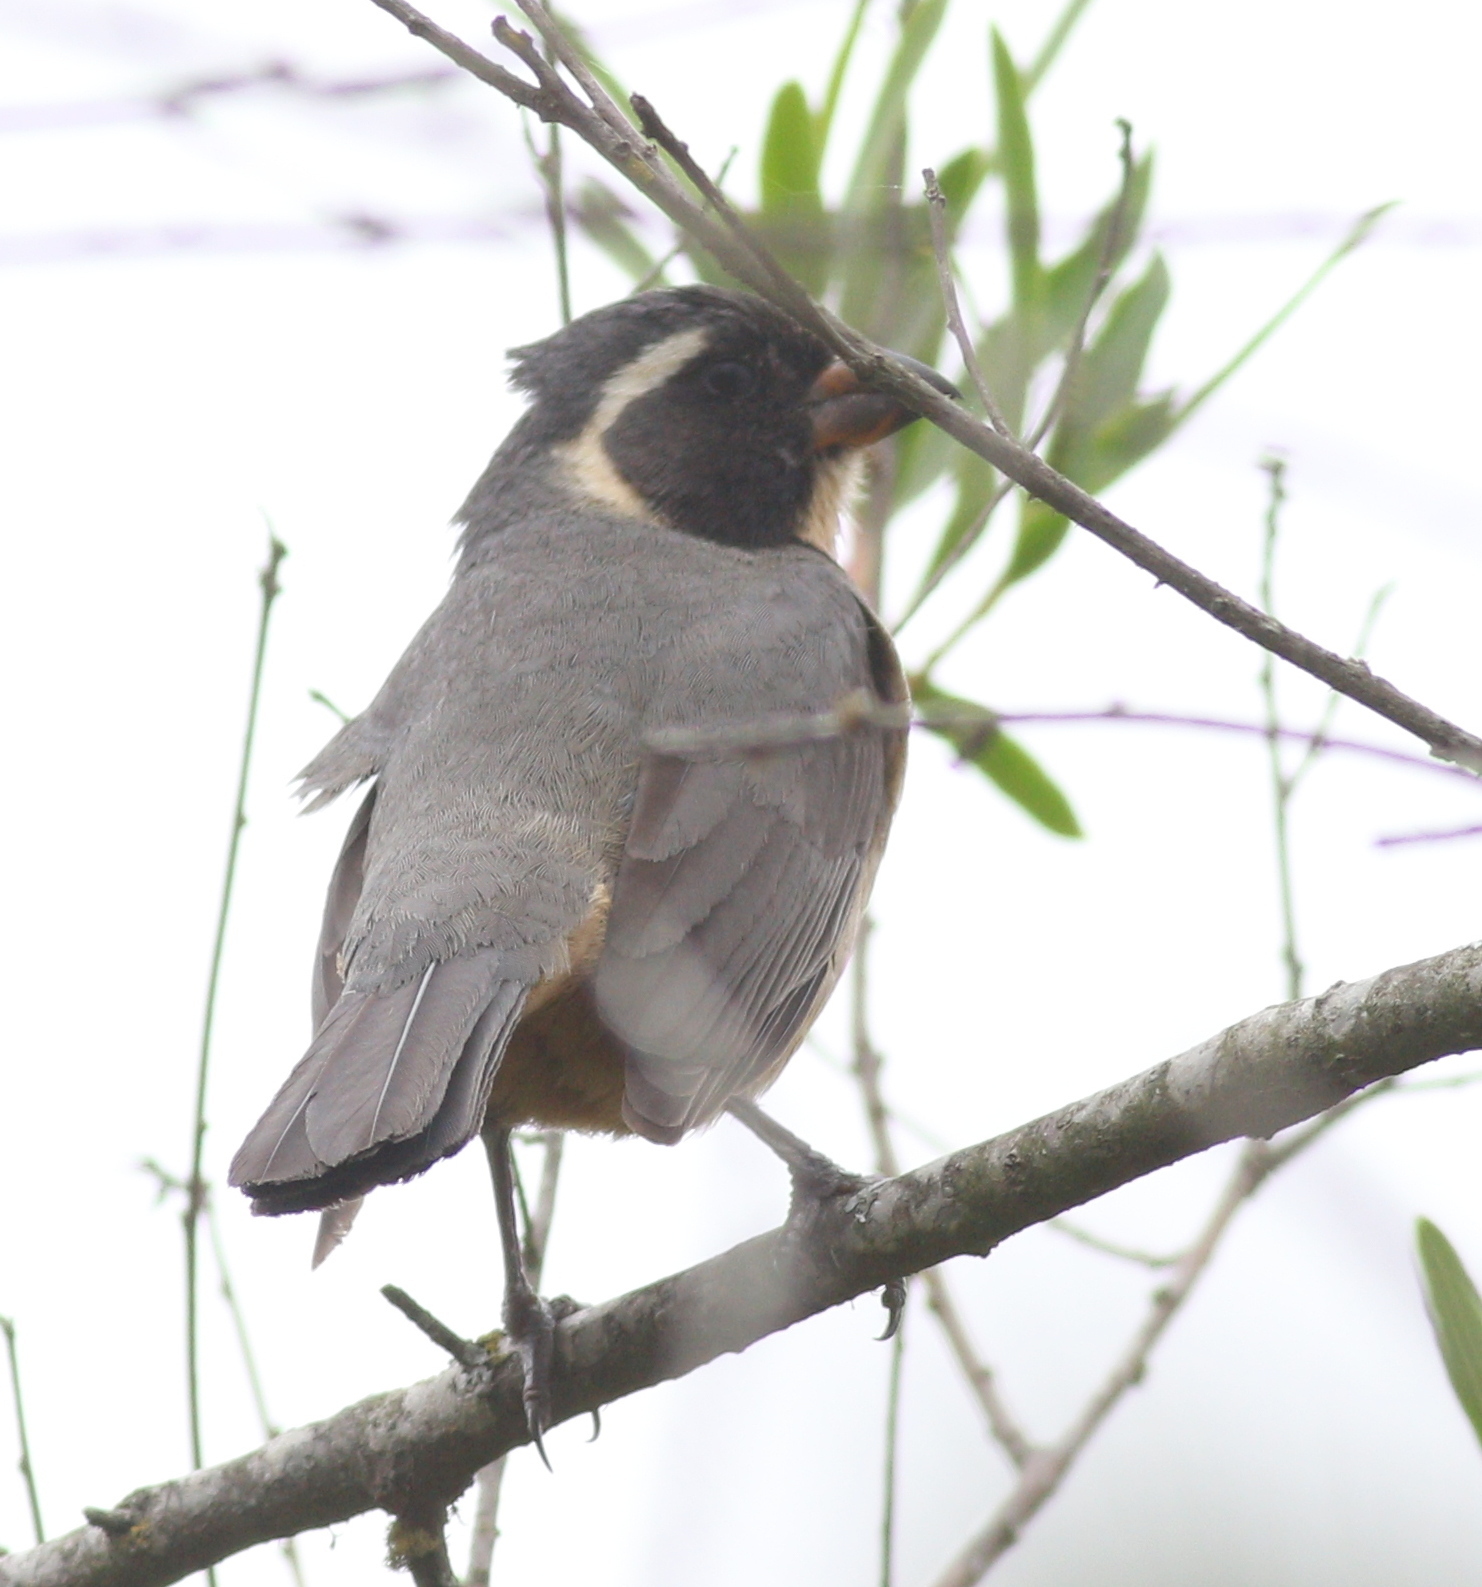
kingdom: Animalia
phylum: Chordata
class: Aves
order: Passeriformes
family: Thraupidae
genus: Saltator
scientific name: Saltator aurantiirostris
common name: Golden-billed saltator
